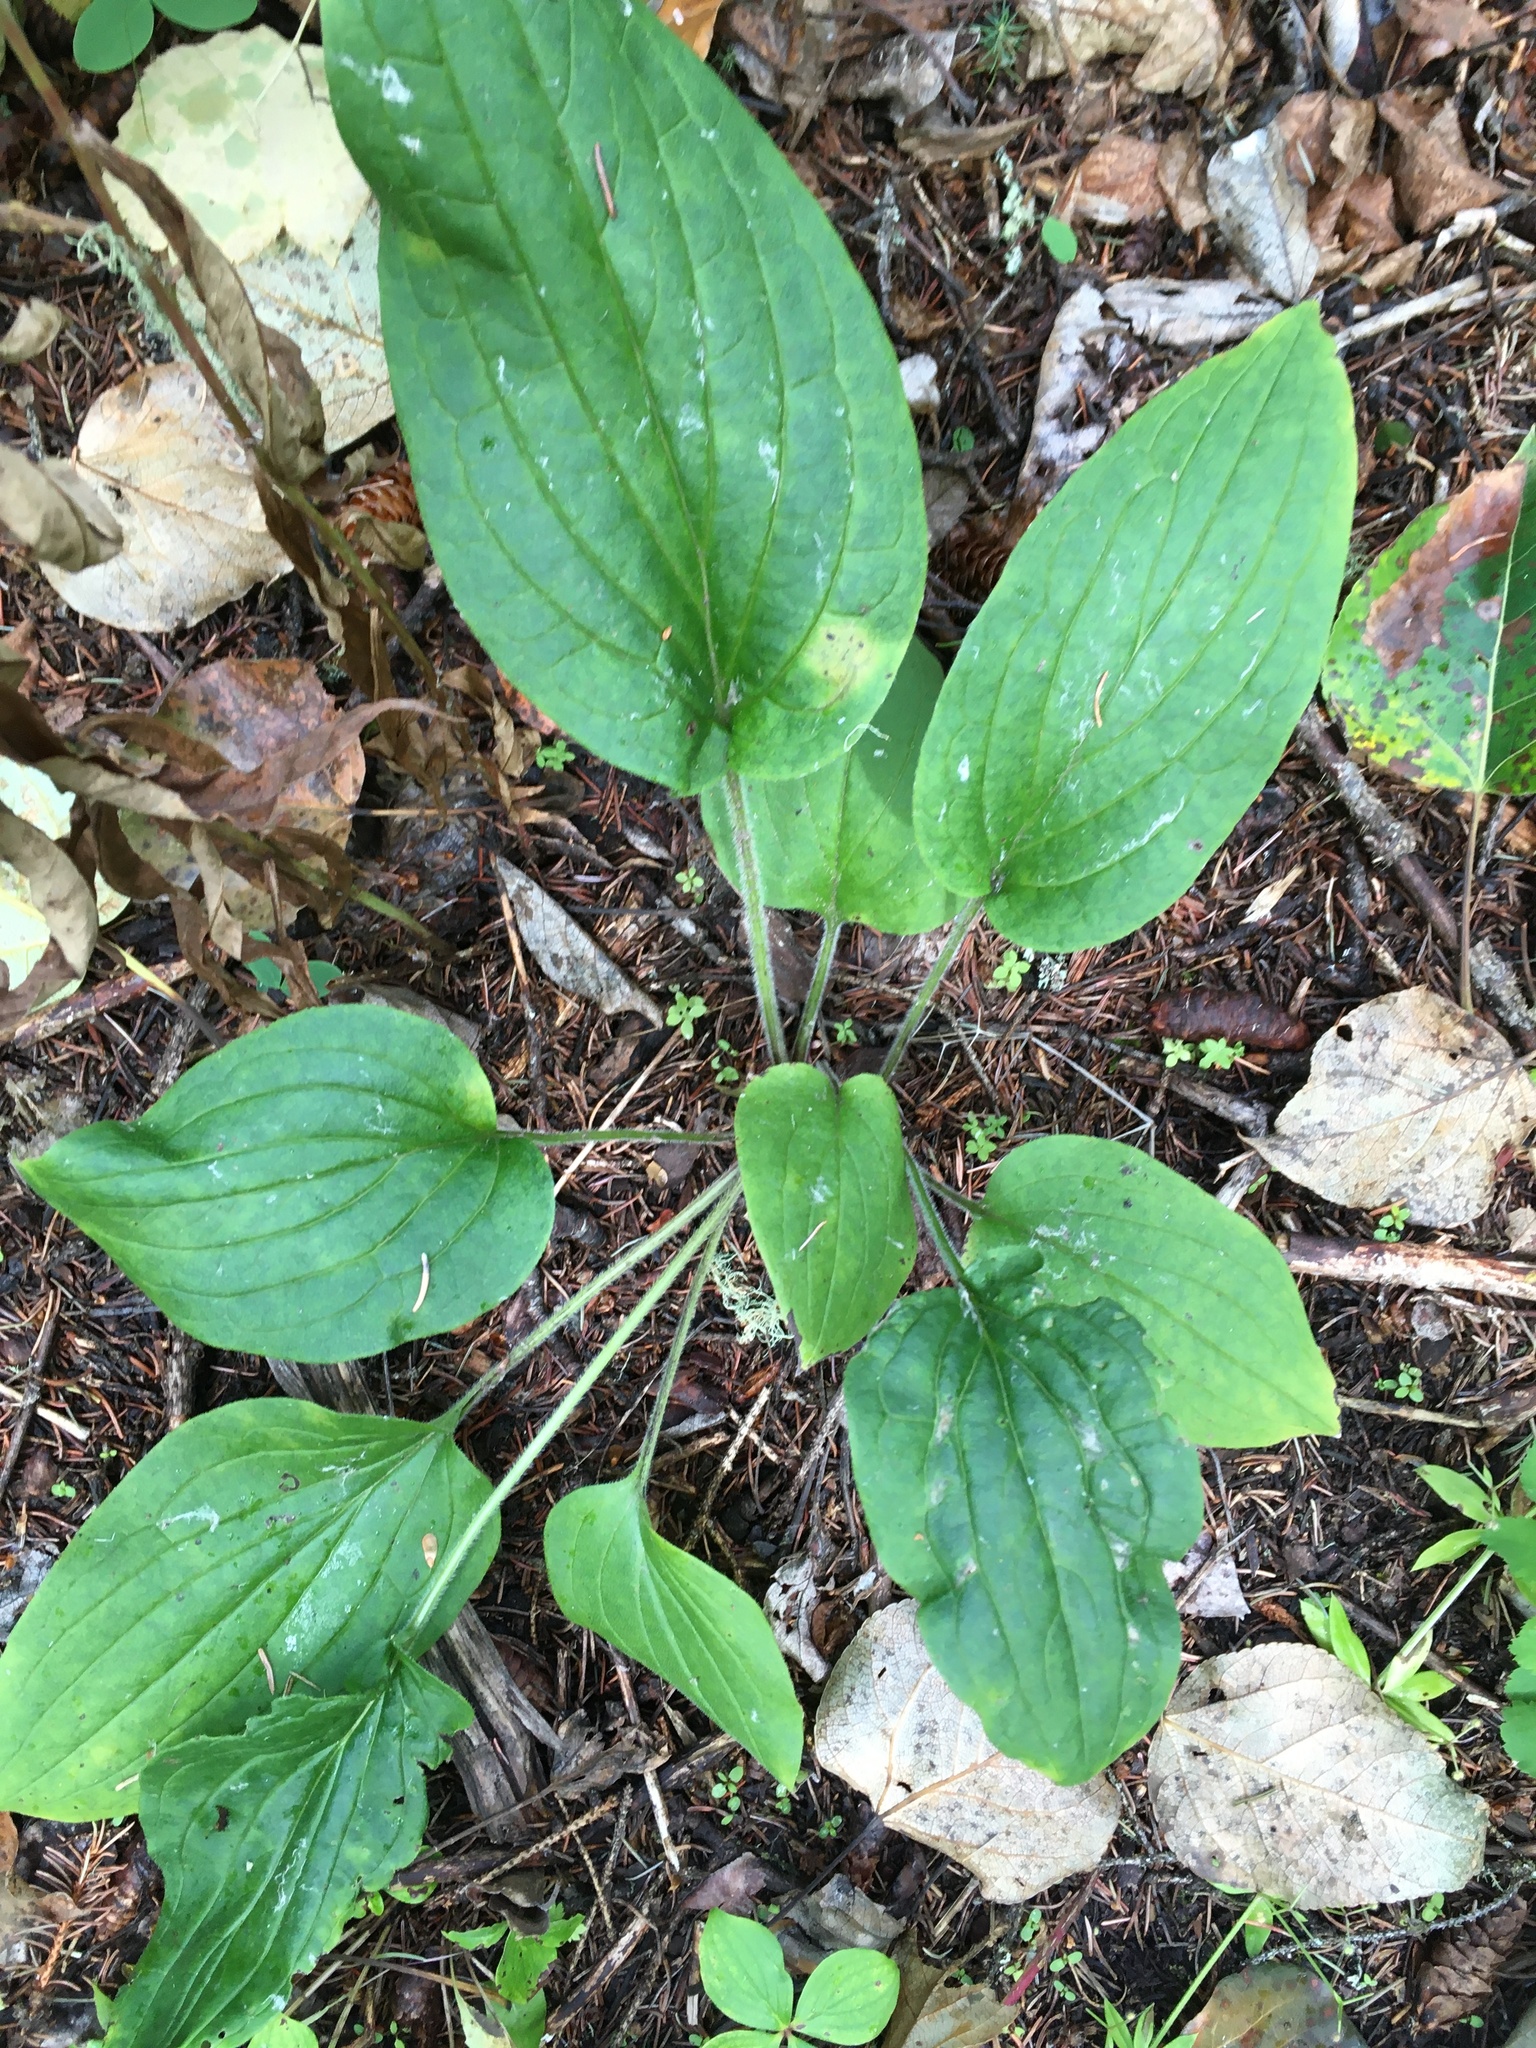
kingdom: Plantae
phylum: Tracheophyta
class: Magnoliopsida
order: Boraginales
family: Boraginaceae
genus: Mertensia
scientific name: Mertensia paniculata
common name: Panicled bluebells
